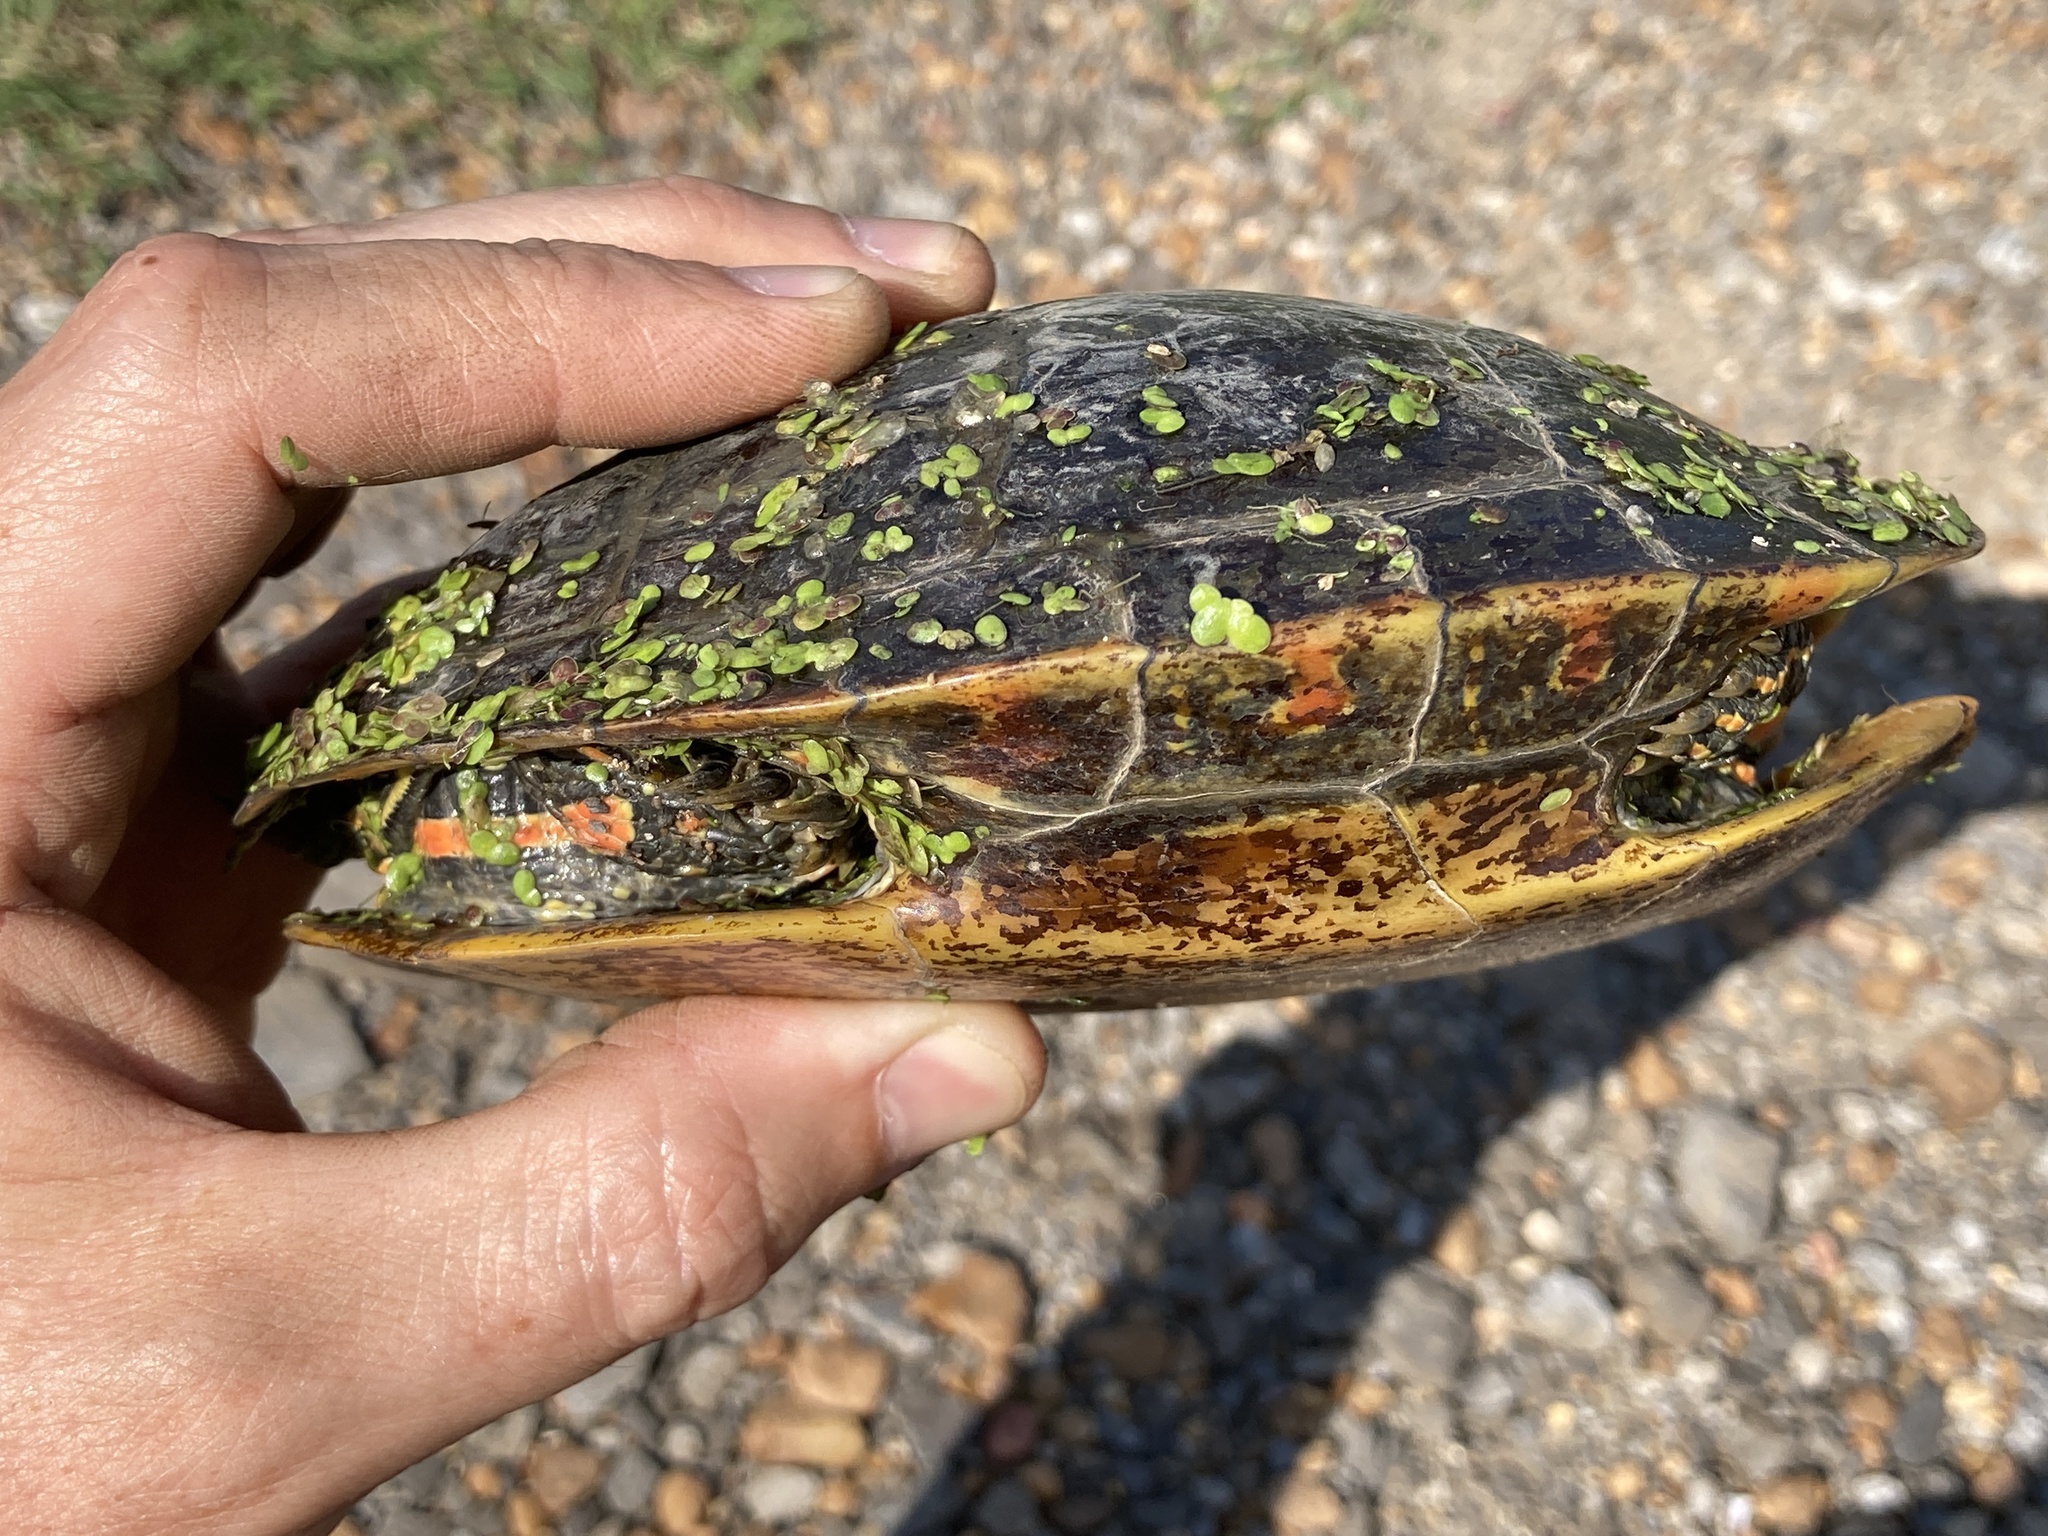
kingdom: Animalia
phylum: Chordata
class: Testudines
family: Emydidae
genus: Chrysemys
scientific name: Chrysemys dorsalis
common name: Southern painted turtle
